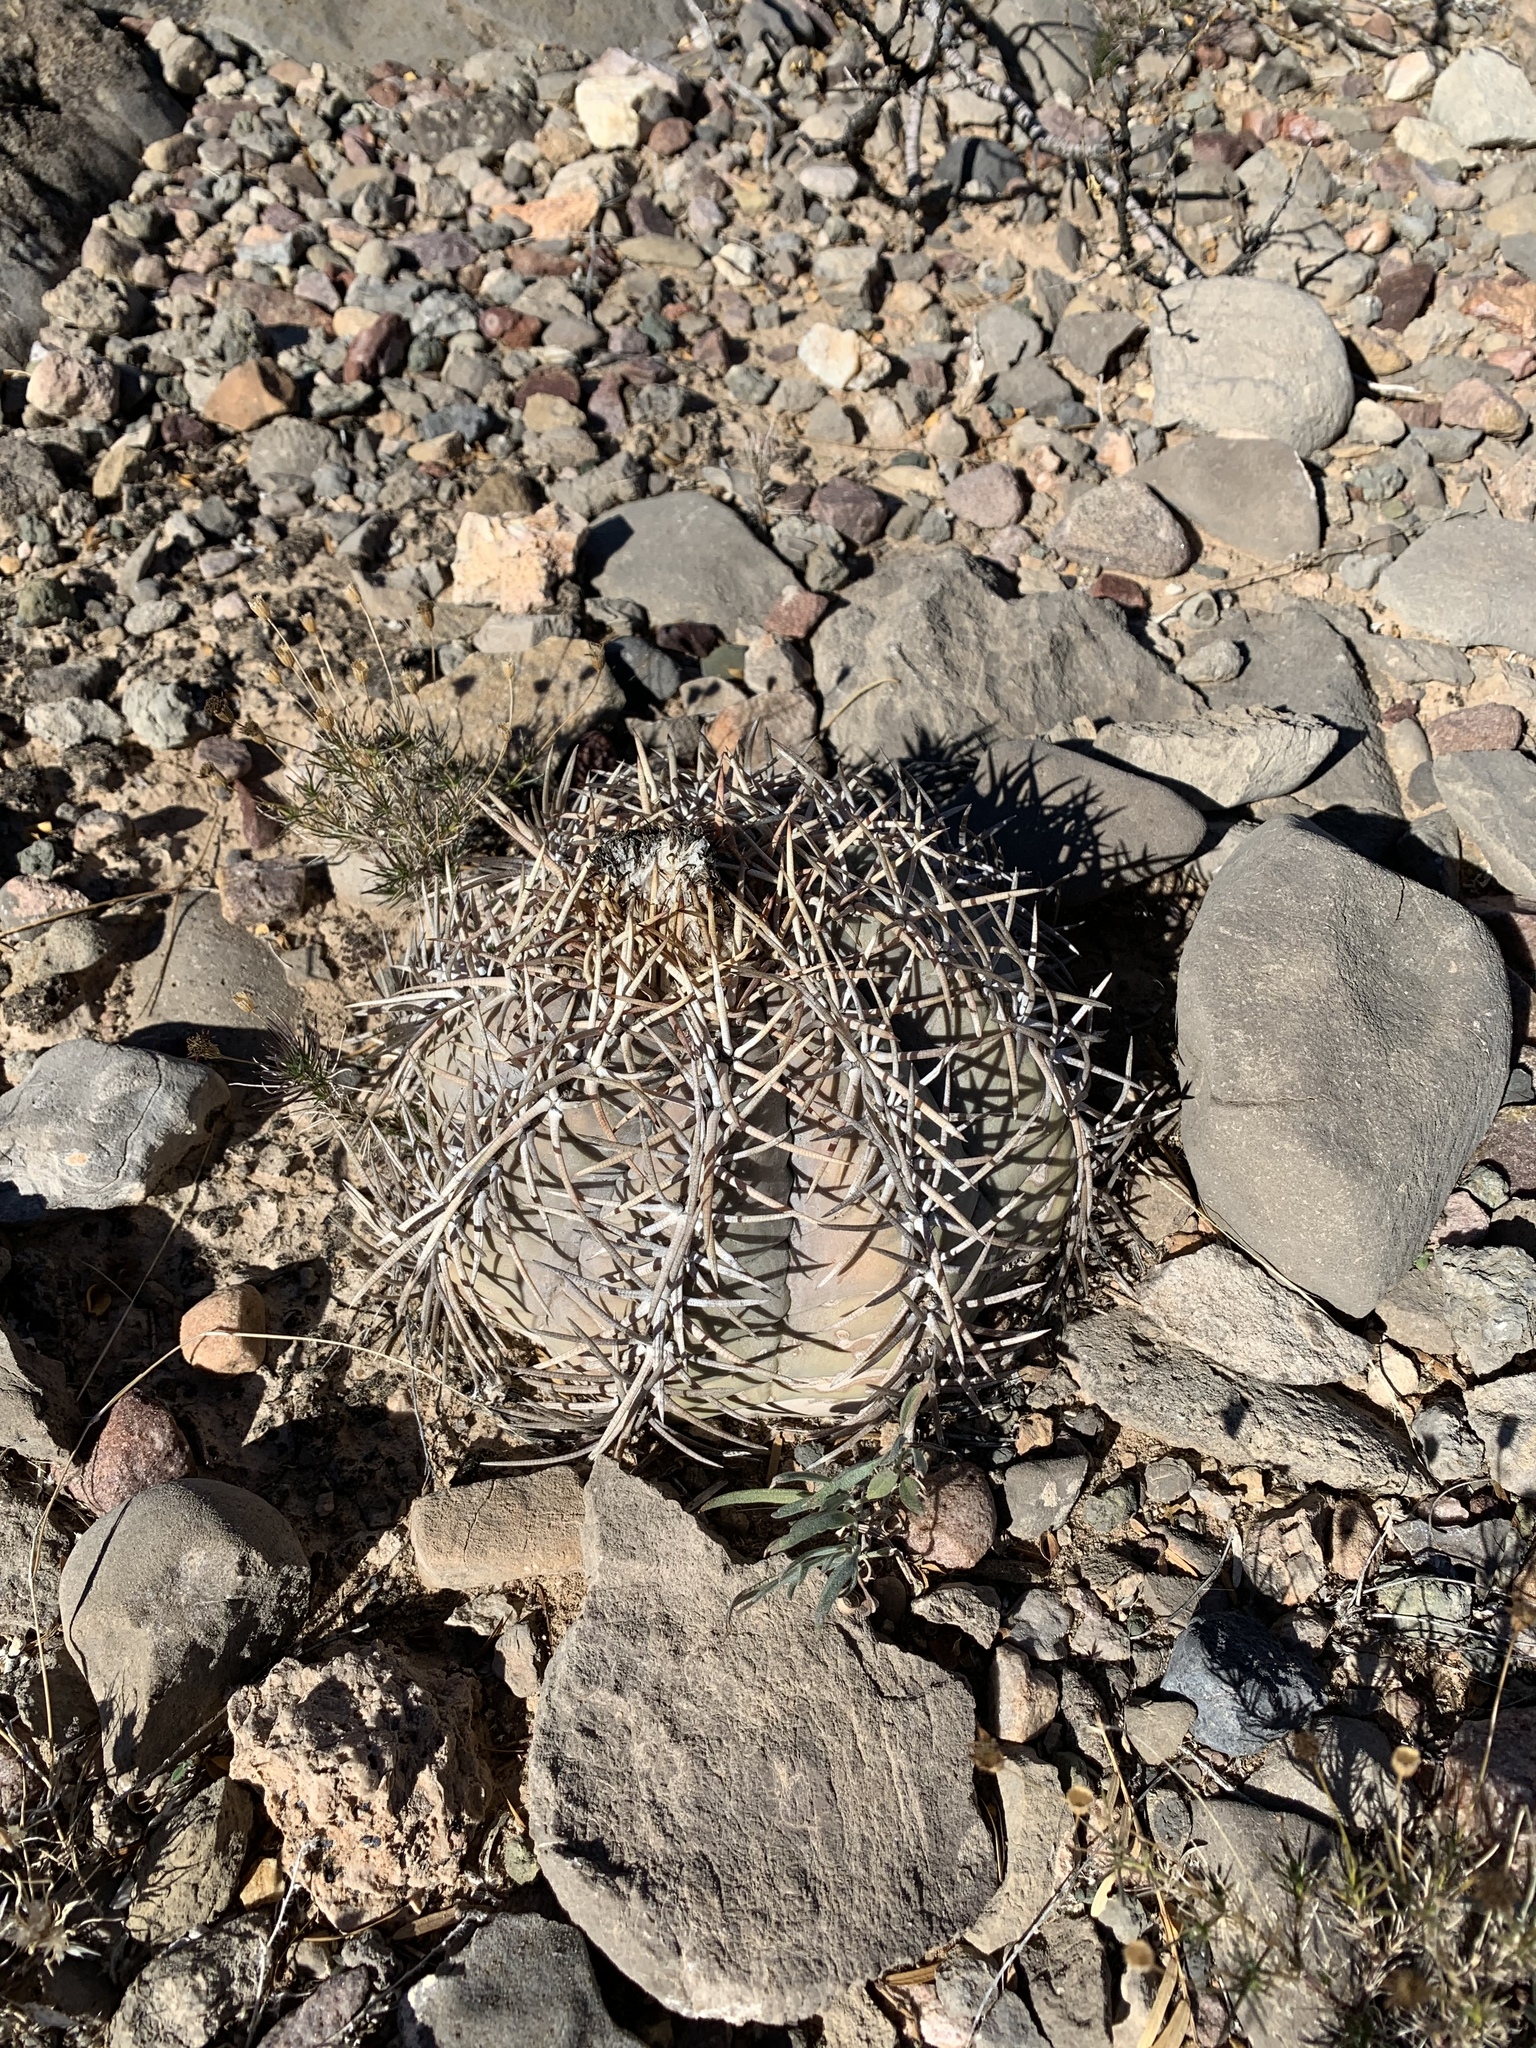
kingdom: Plantae
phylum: Tracheophyta
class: Magnoliopsida
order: Caryophyllales
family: Cactaceae
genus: Echinocactus
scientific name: Echinocactus horizonthalonius
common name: Devilshead
